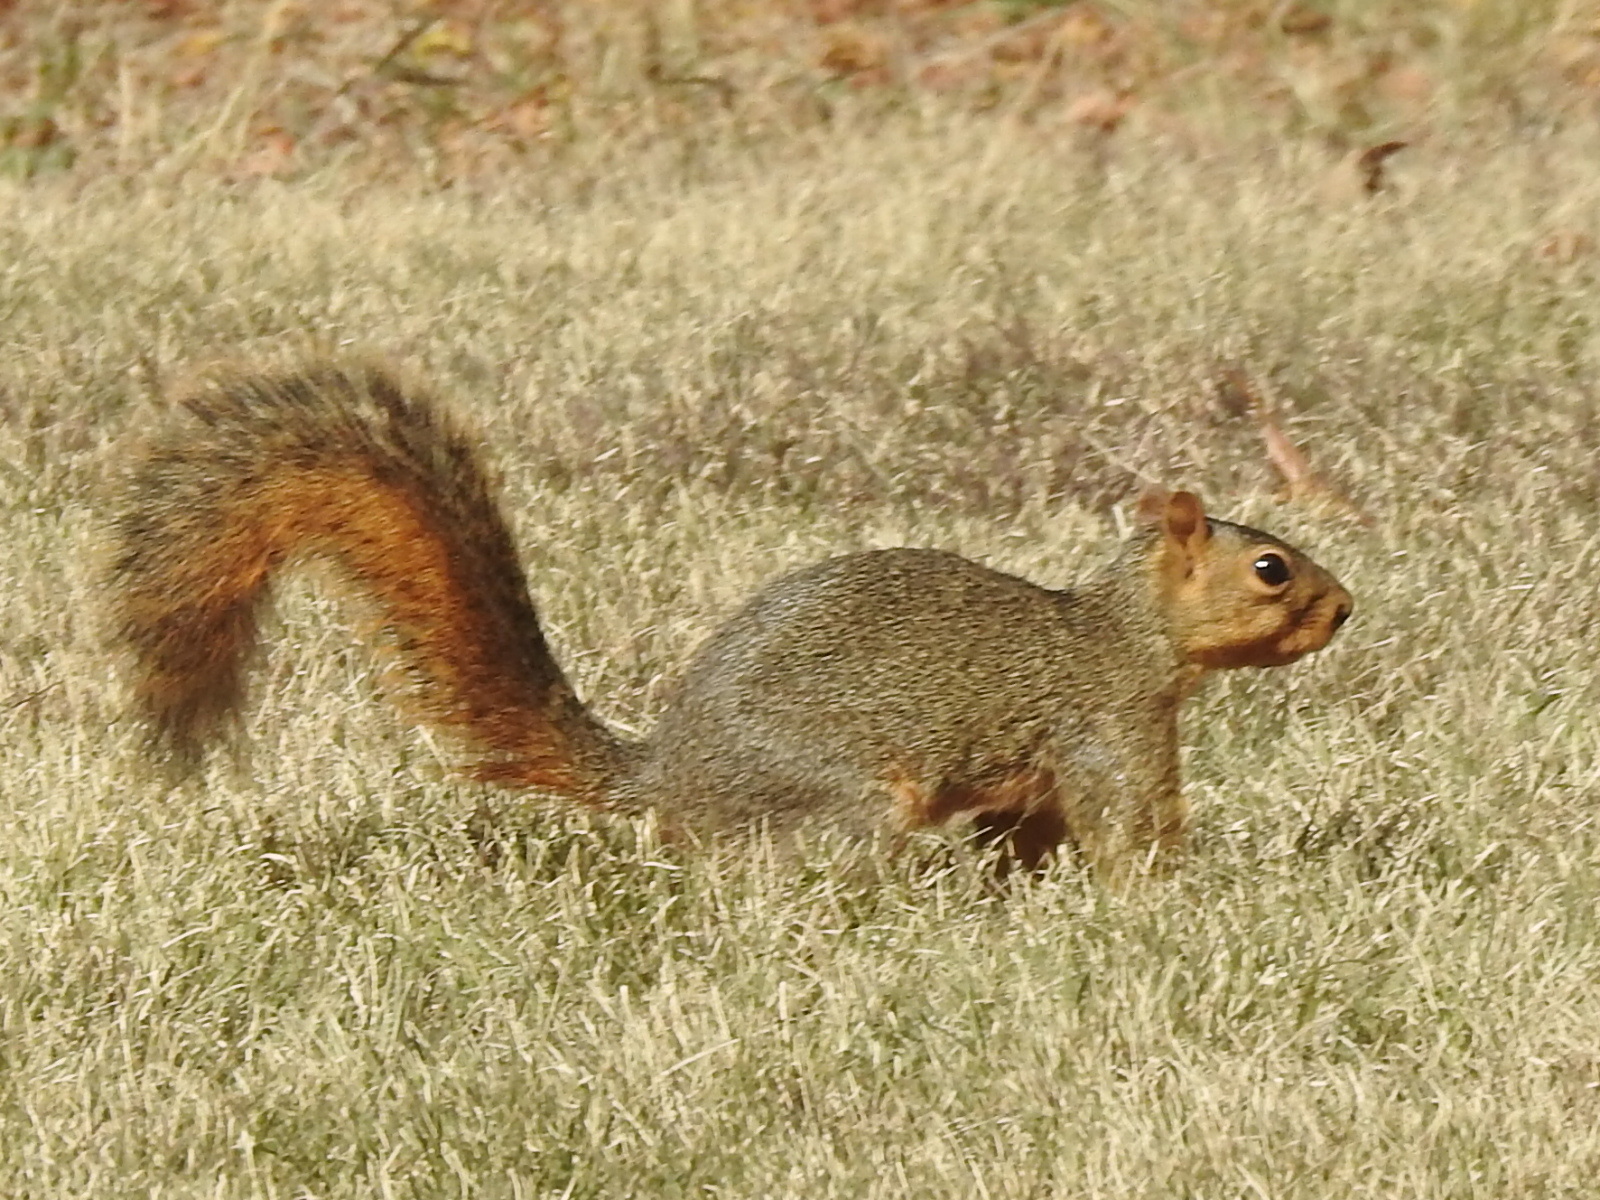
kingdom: Animalia
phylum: Chordata
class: Mammalia
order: Rodentia
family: Sciuridae
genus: Sciurus
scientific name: Sciurus niger
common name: Fox squirrel
